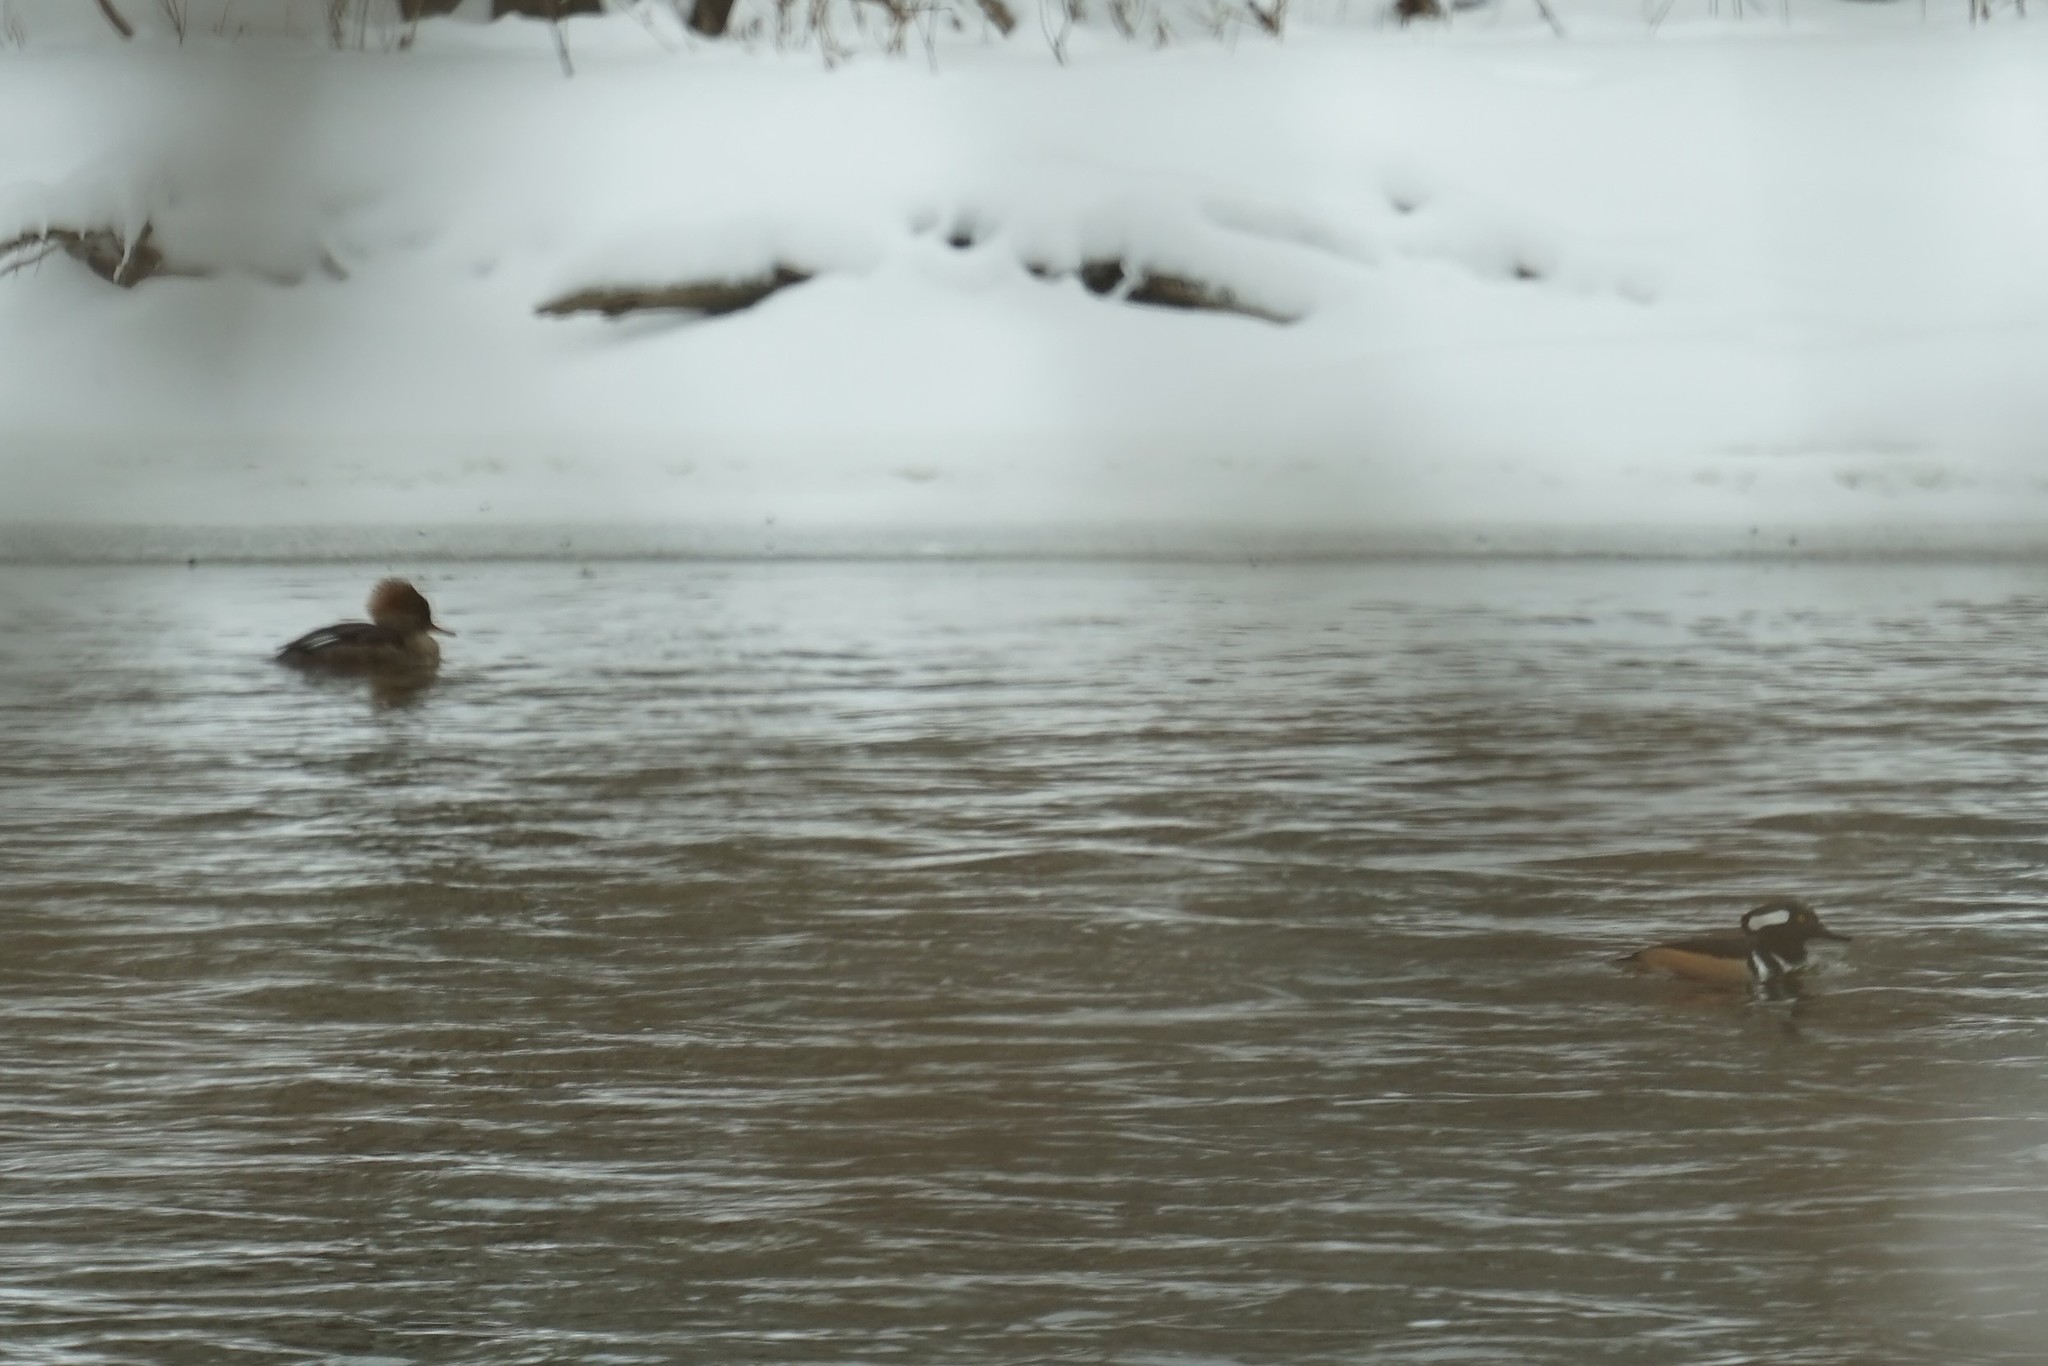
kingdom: Animalia
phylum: Chordata
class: Aves
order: Anseriformes
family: Anatidae
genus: Lophodytes
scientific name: Lophodytes cucullatus
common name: Hooded merganser
